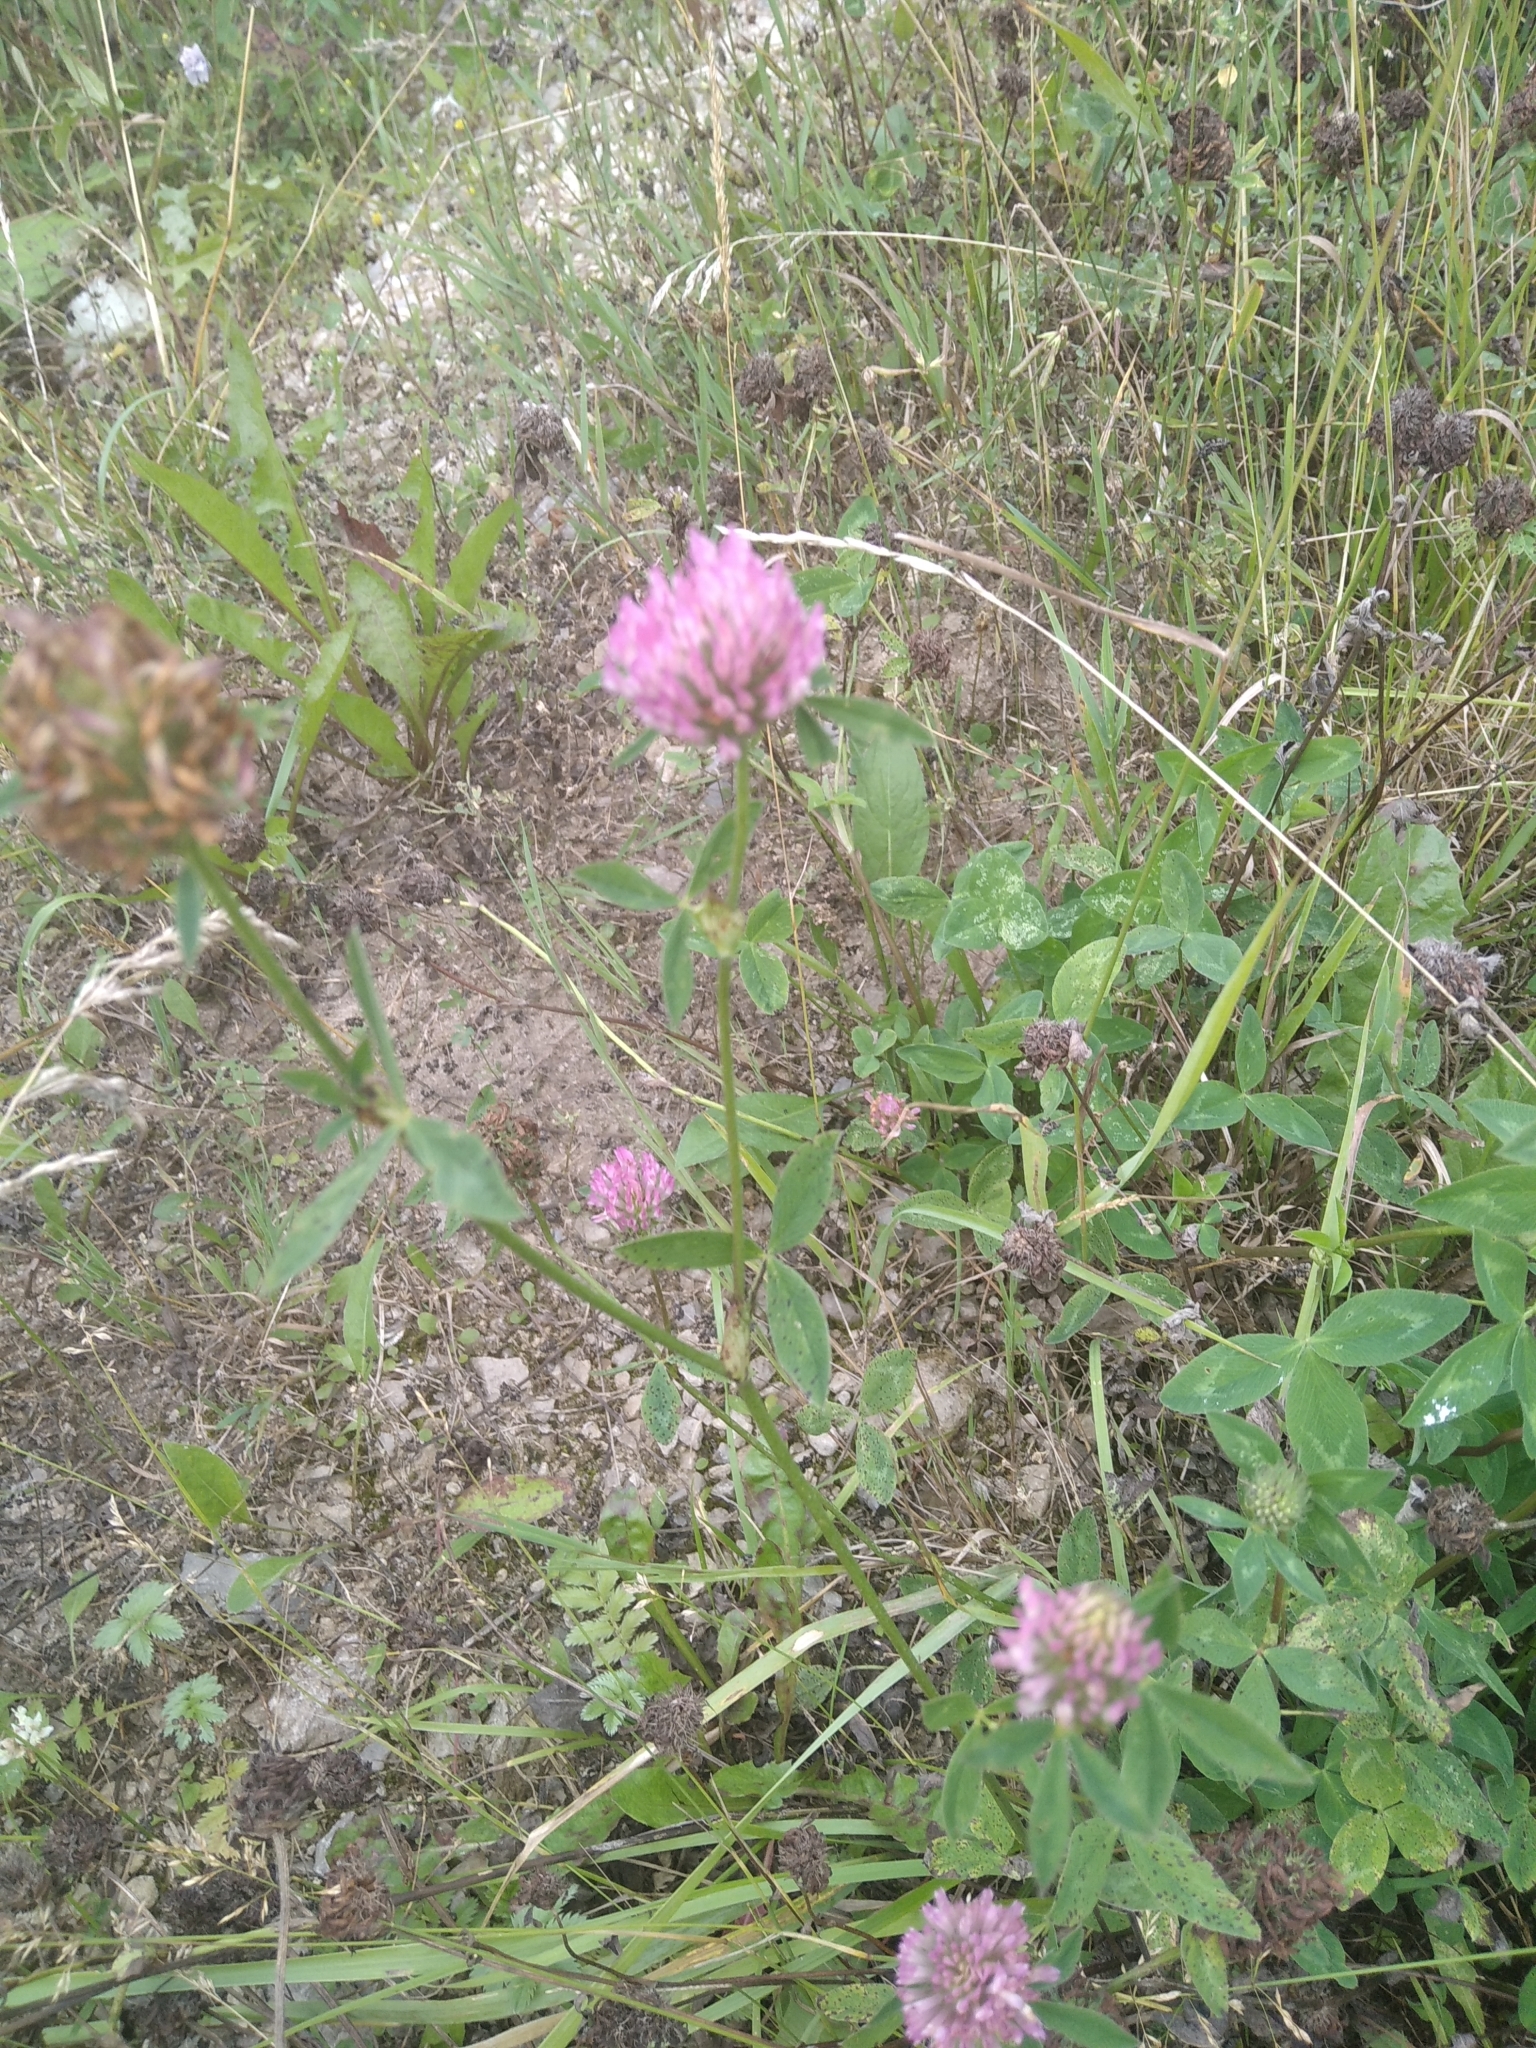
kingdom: Plantae
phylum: Tracheophyta
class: Magnoliopsida
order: Fabales
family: Fabaceae
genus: Trifolium
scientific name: Trifolium pratense
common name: Red clover
